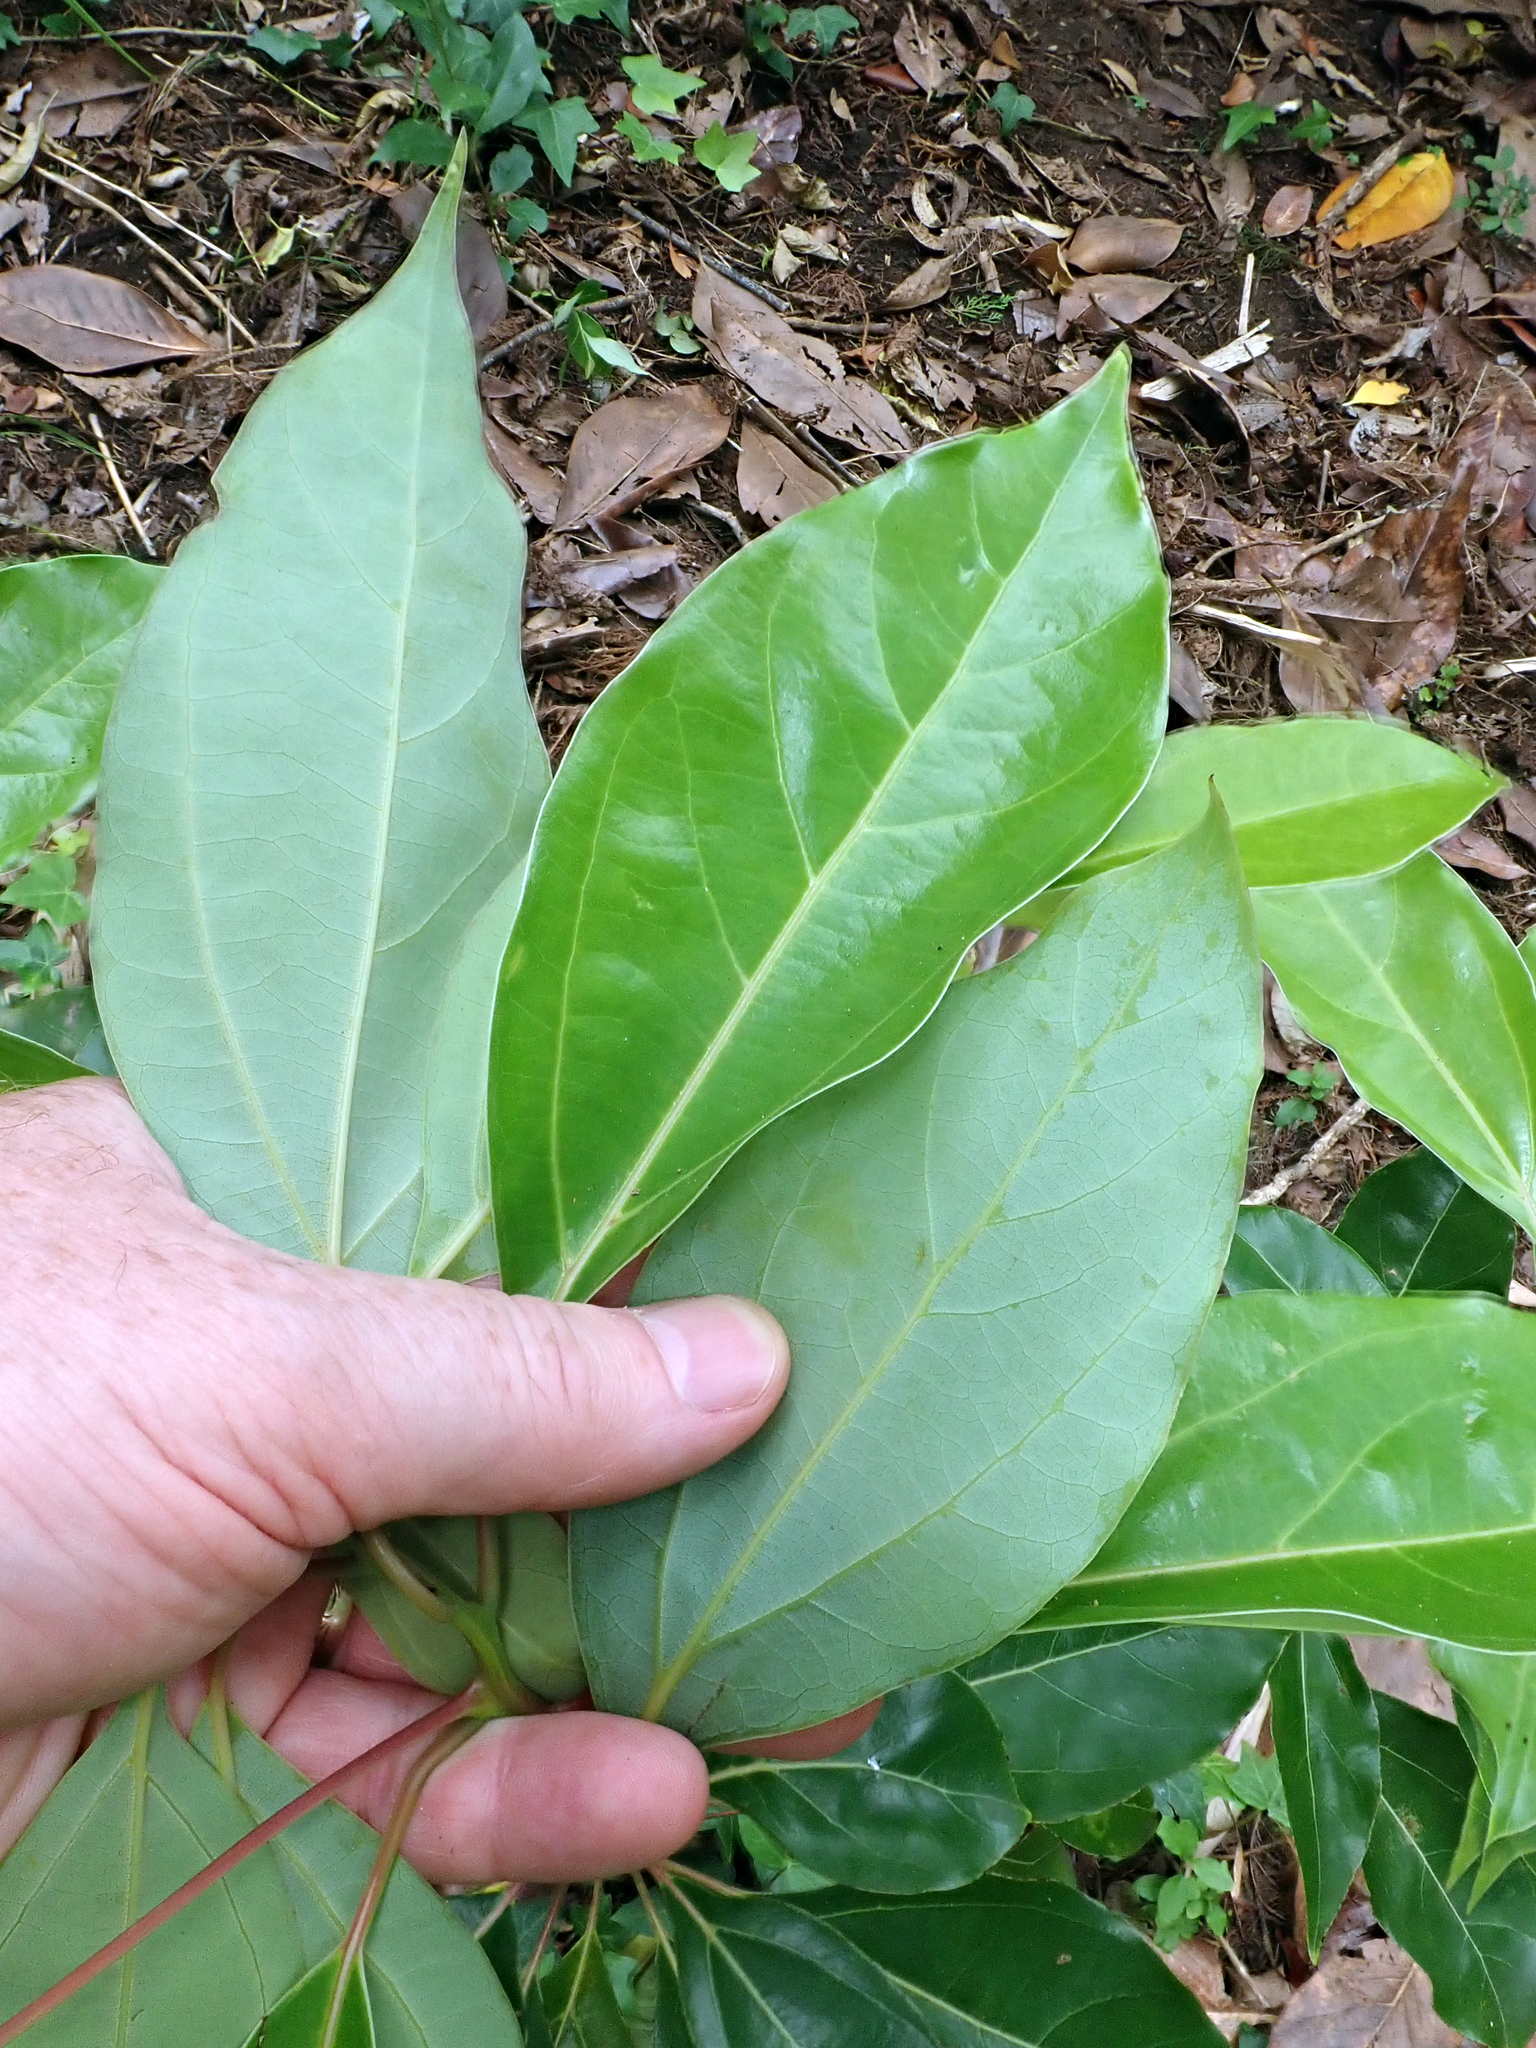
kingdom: Plantae
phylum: Tracheophyta
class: Magnoliopsida
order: Laurales
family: Lauraceae
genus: Cinnamomum
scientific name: Cinnamomum camphora
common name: Camphortree
